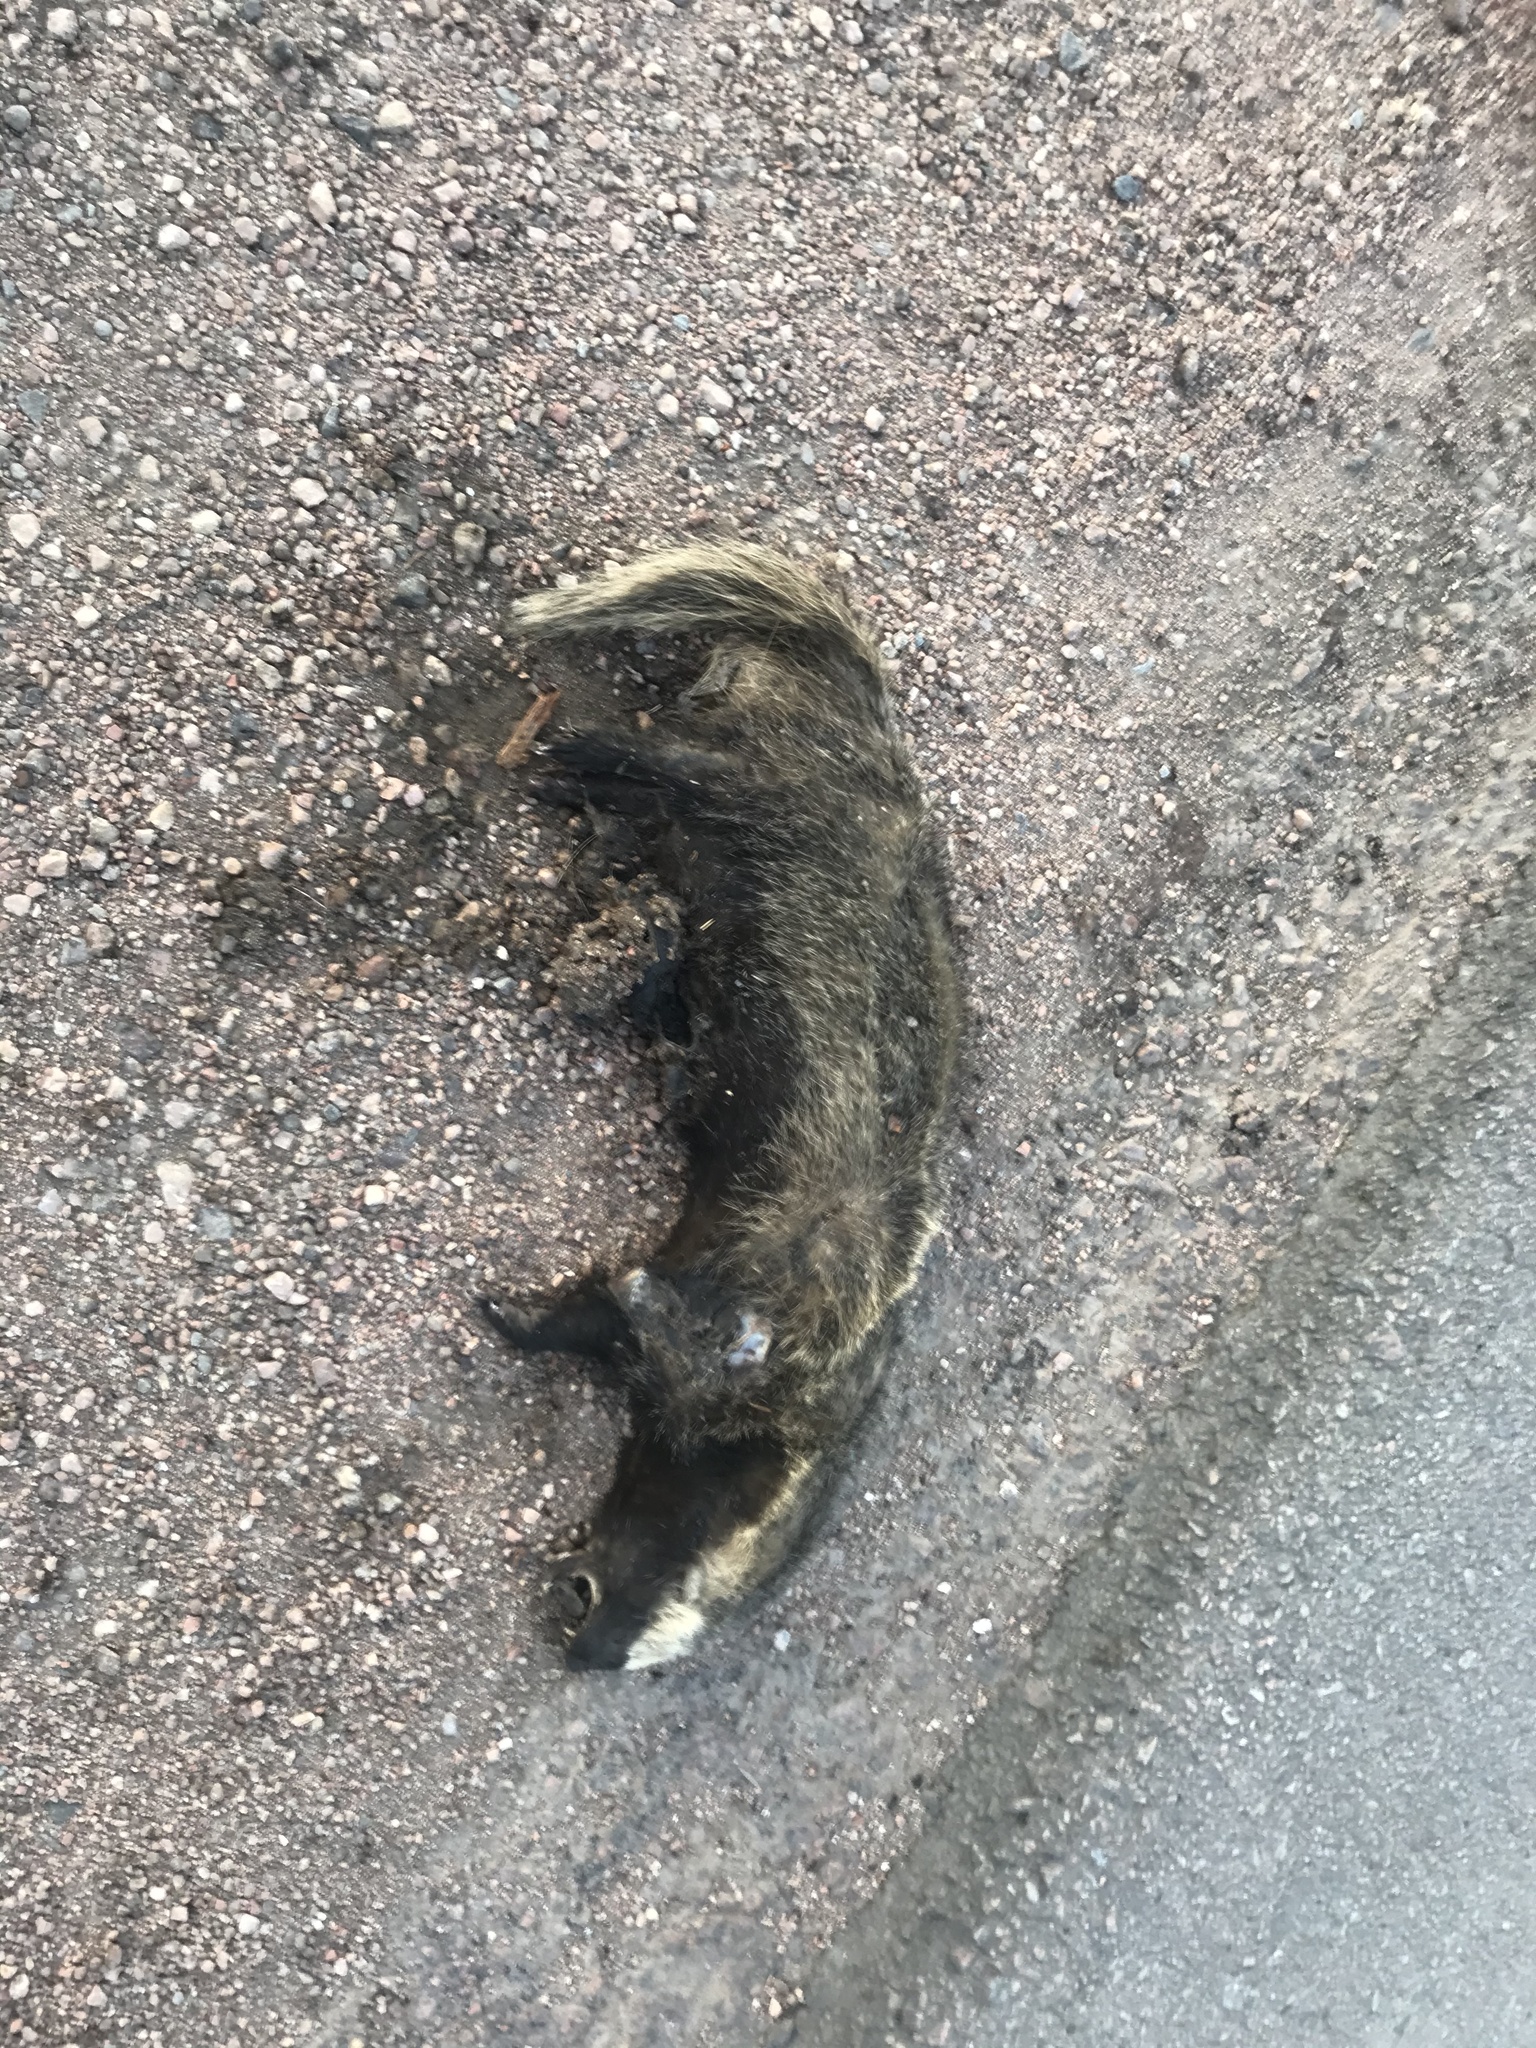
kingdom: Animalia
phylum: Chordata
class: Mammalia
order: Carnivora
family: Mustelidae
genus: Galictis
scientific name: Galictis cuja
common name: Lesser grison
